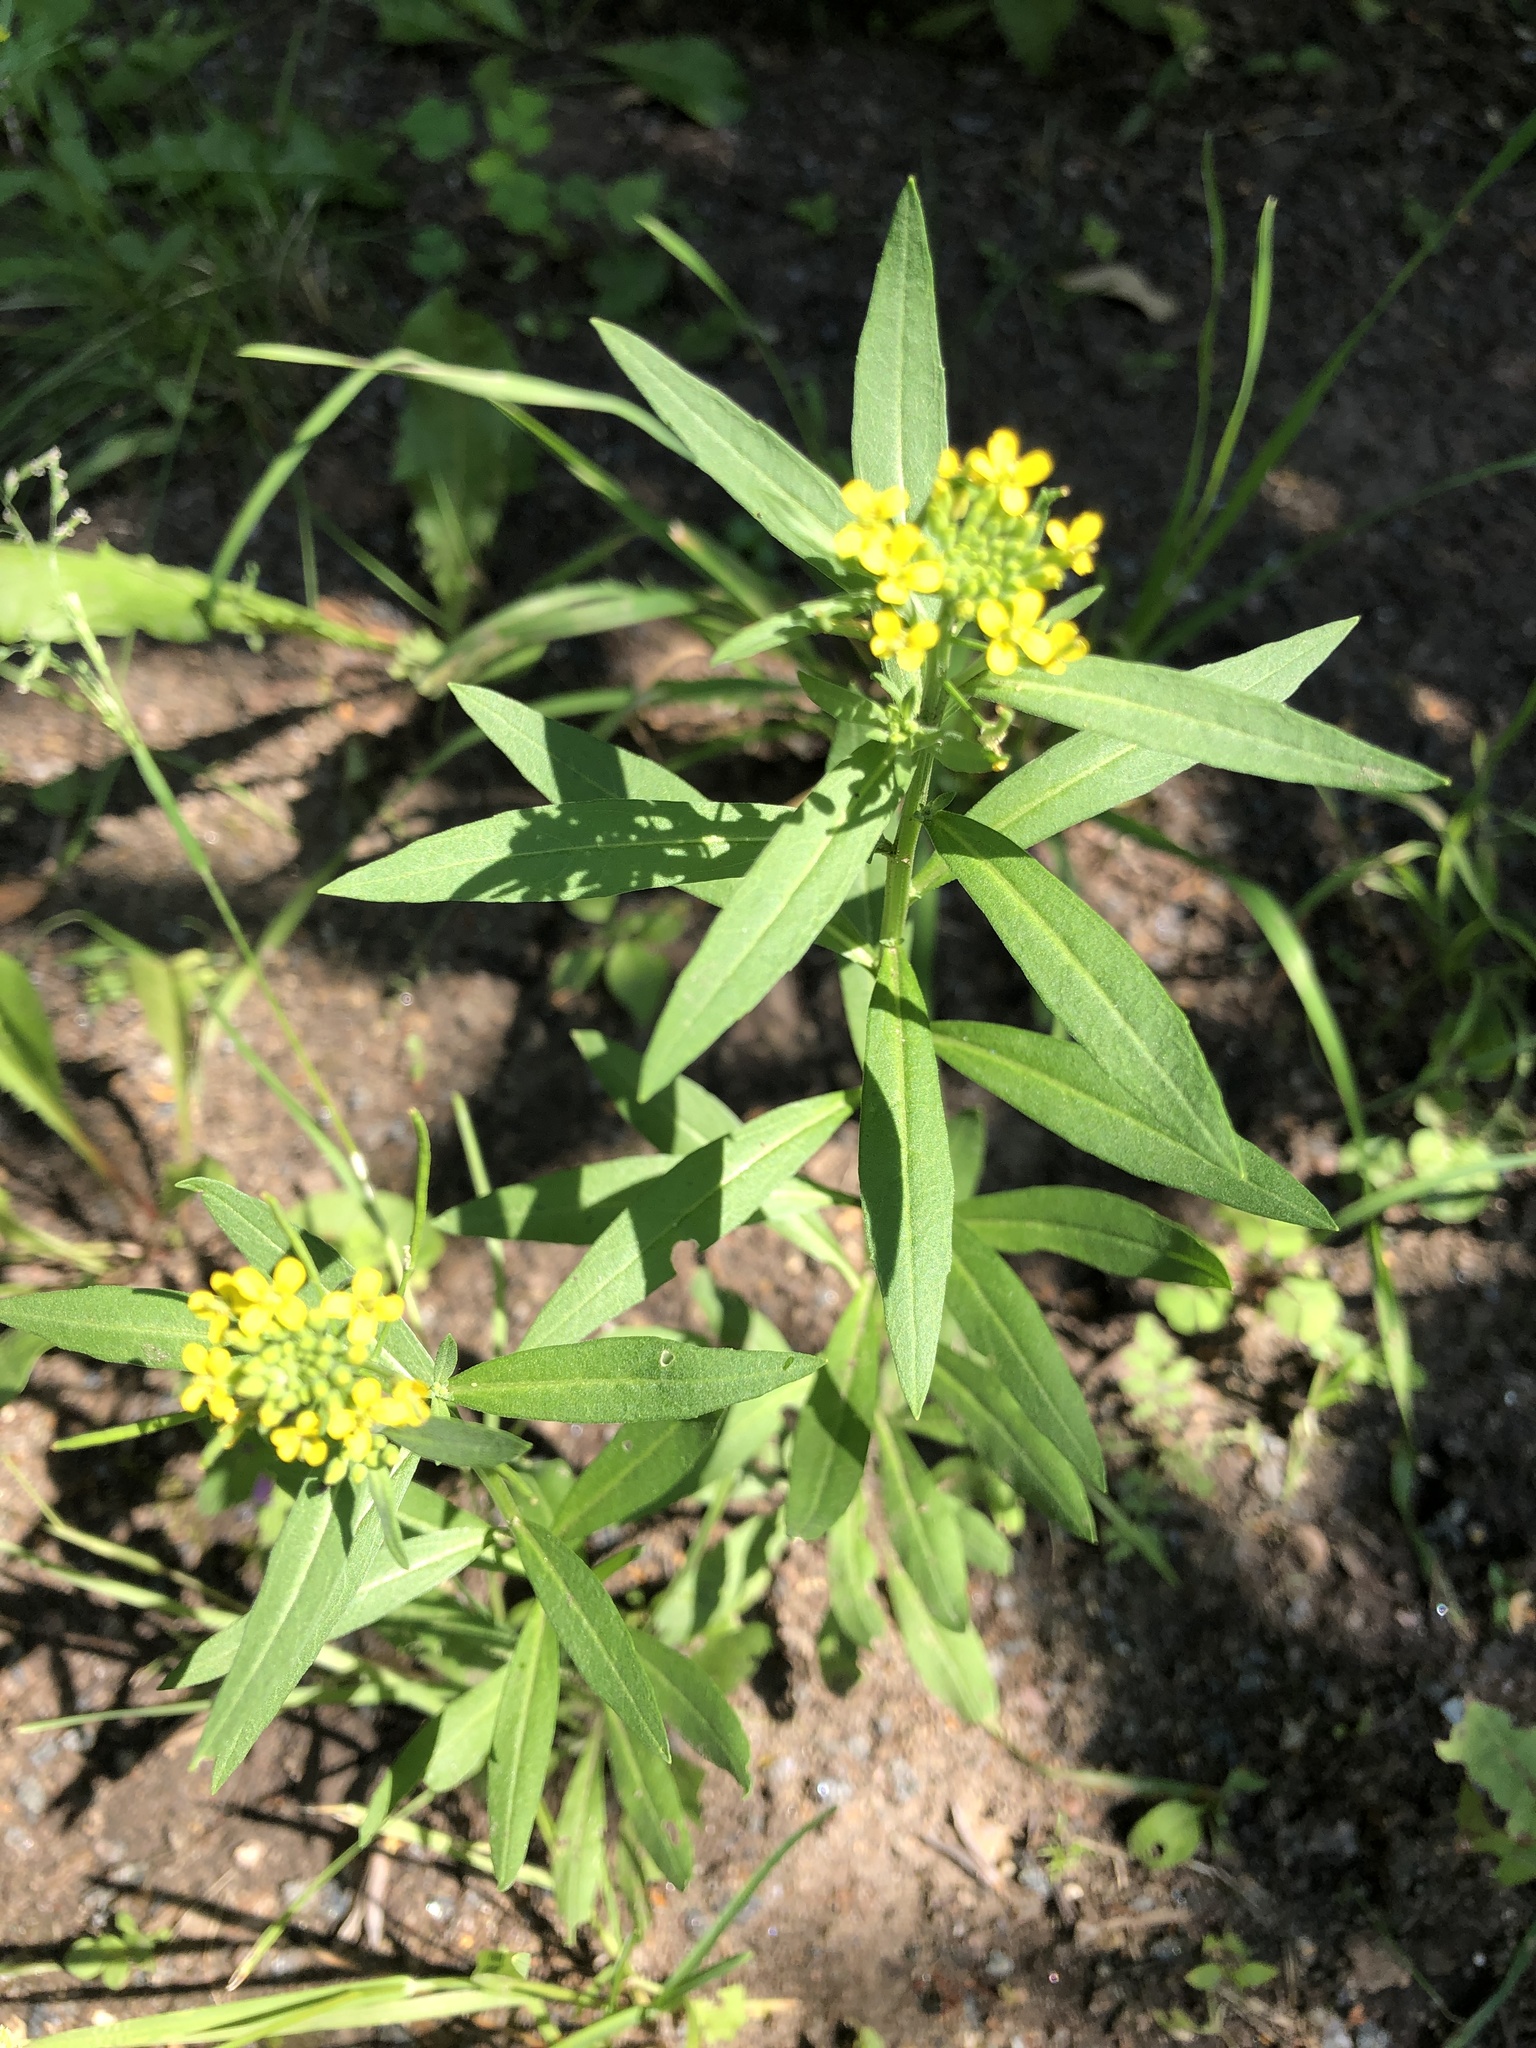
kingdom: Plantae
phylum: Tracheophyta
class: Magnoliopsida
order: Brassicales
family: Brassicaceae
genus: Erysimum
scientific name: Erysimum cheiranthoides
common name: Treacle mustard
